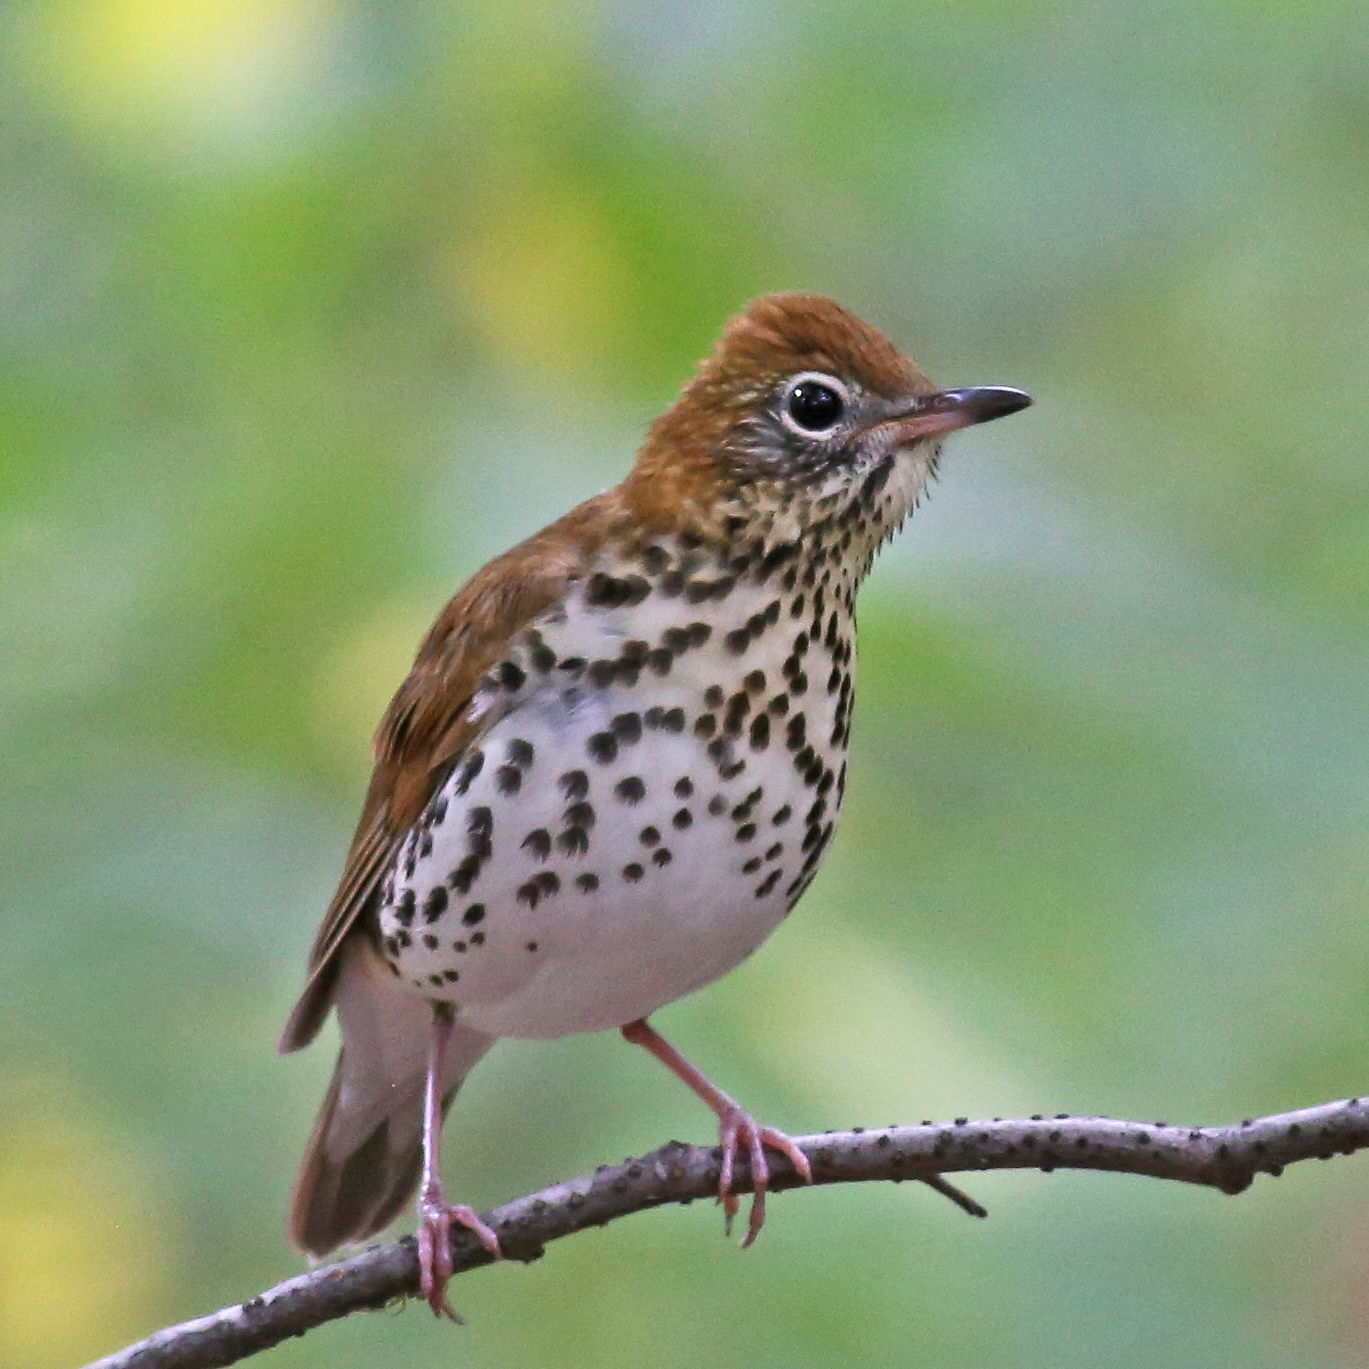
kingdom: Animalia
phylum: Chordata
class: Aves
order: Passeriformes
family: Turdidae
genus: Hylocichla
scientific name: Hylocichla mustelina
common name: Wood thrush
